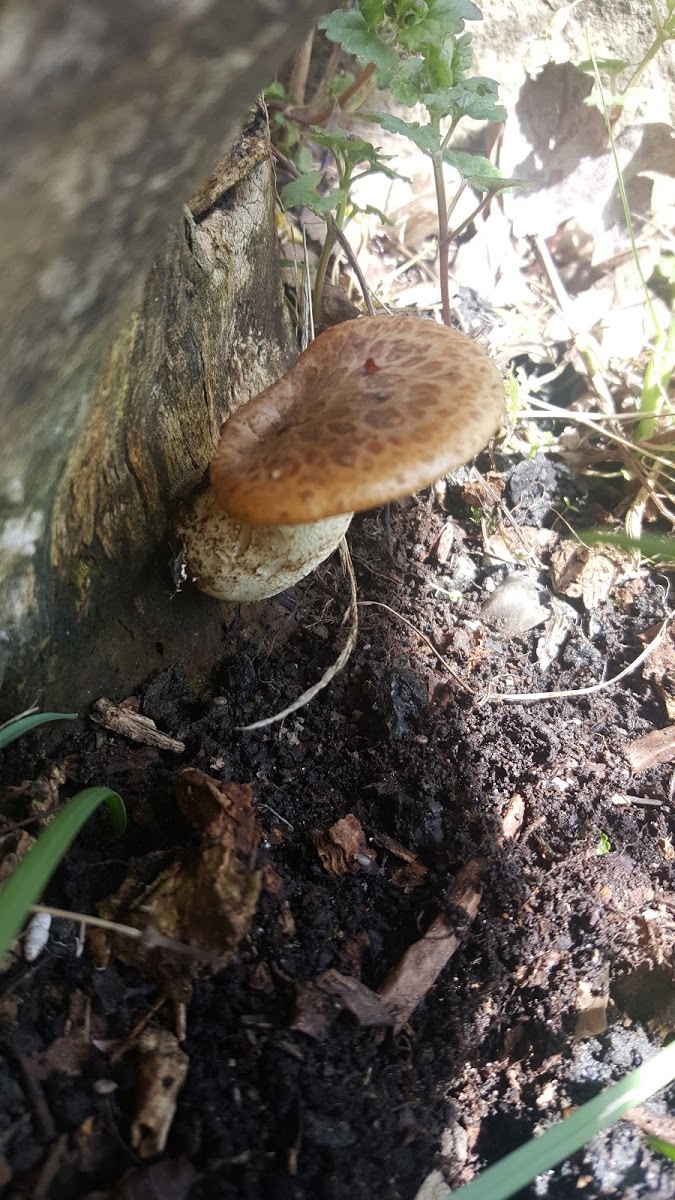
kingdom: Fungi
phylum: Basidiomycota
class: Agaricomycetes
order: Polyporales
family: Polyporaceae
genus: Cerioporus
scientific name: Cerioporus squamosus
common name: Dryad's saddle
